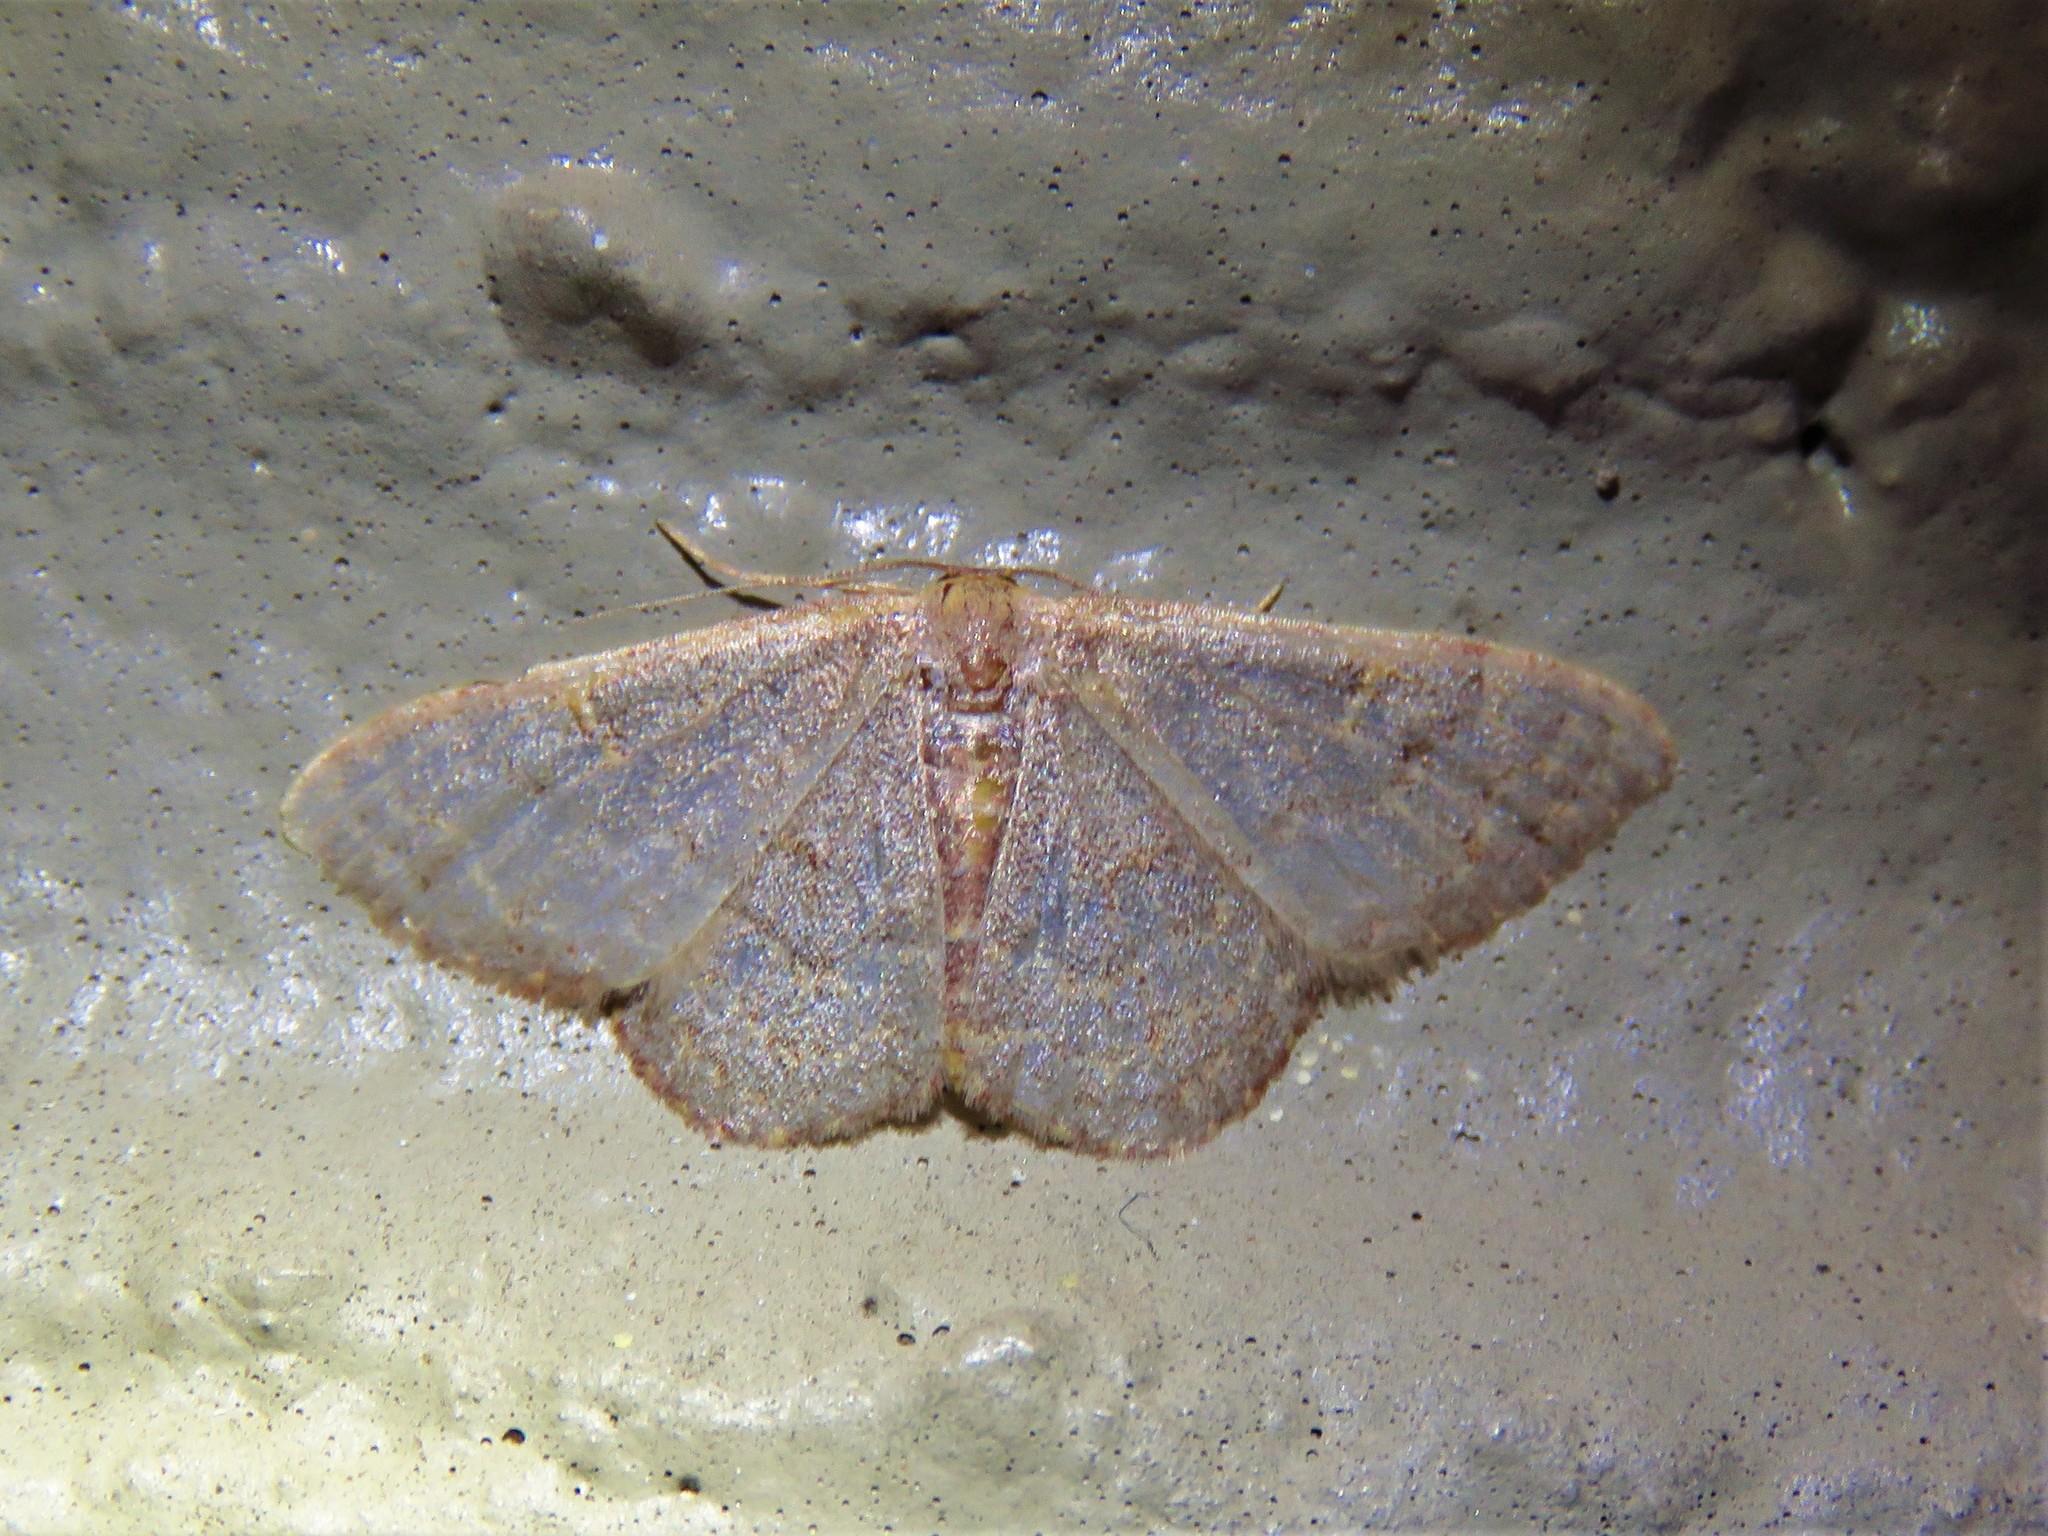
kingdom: Animalia
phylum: Arthropoda
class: Insecta
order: Lepidoptera
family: Geometridae
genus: Leptostales
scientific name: Leptostales pannaria
